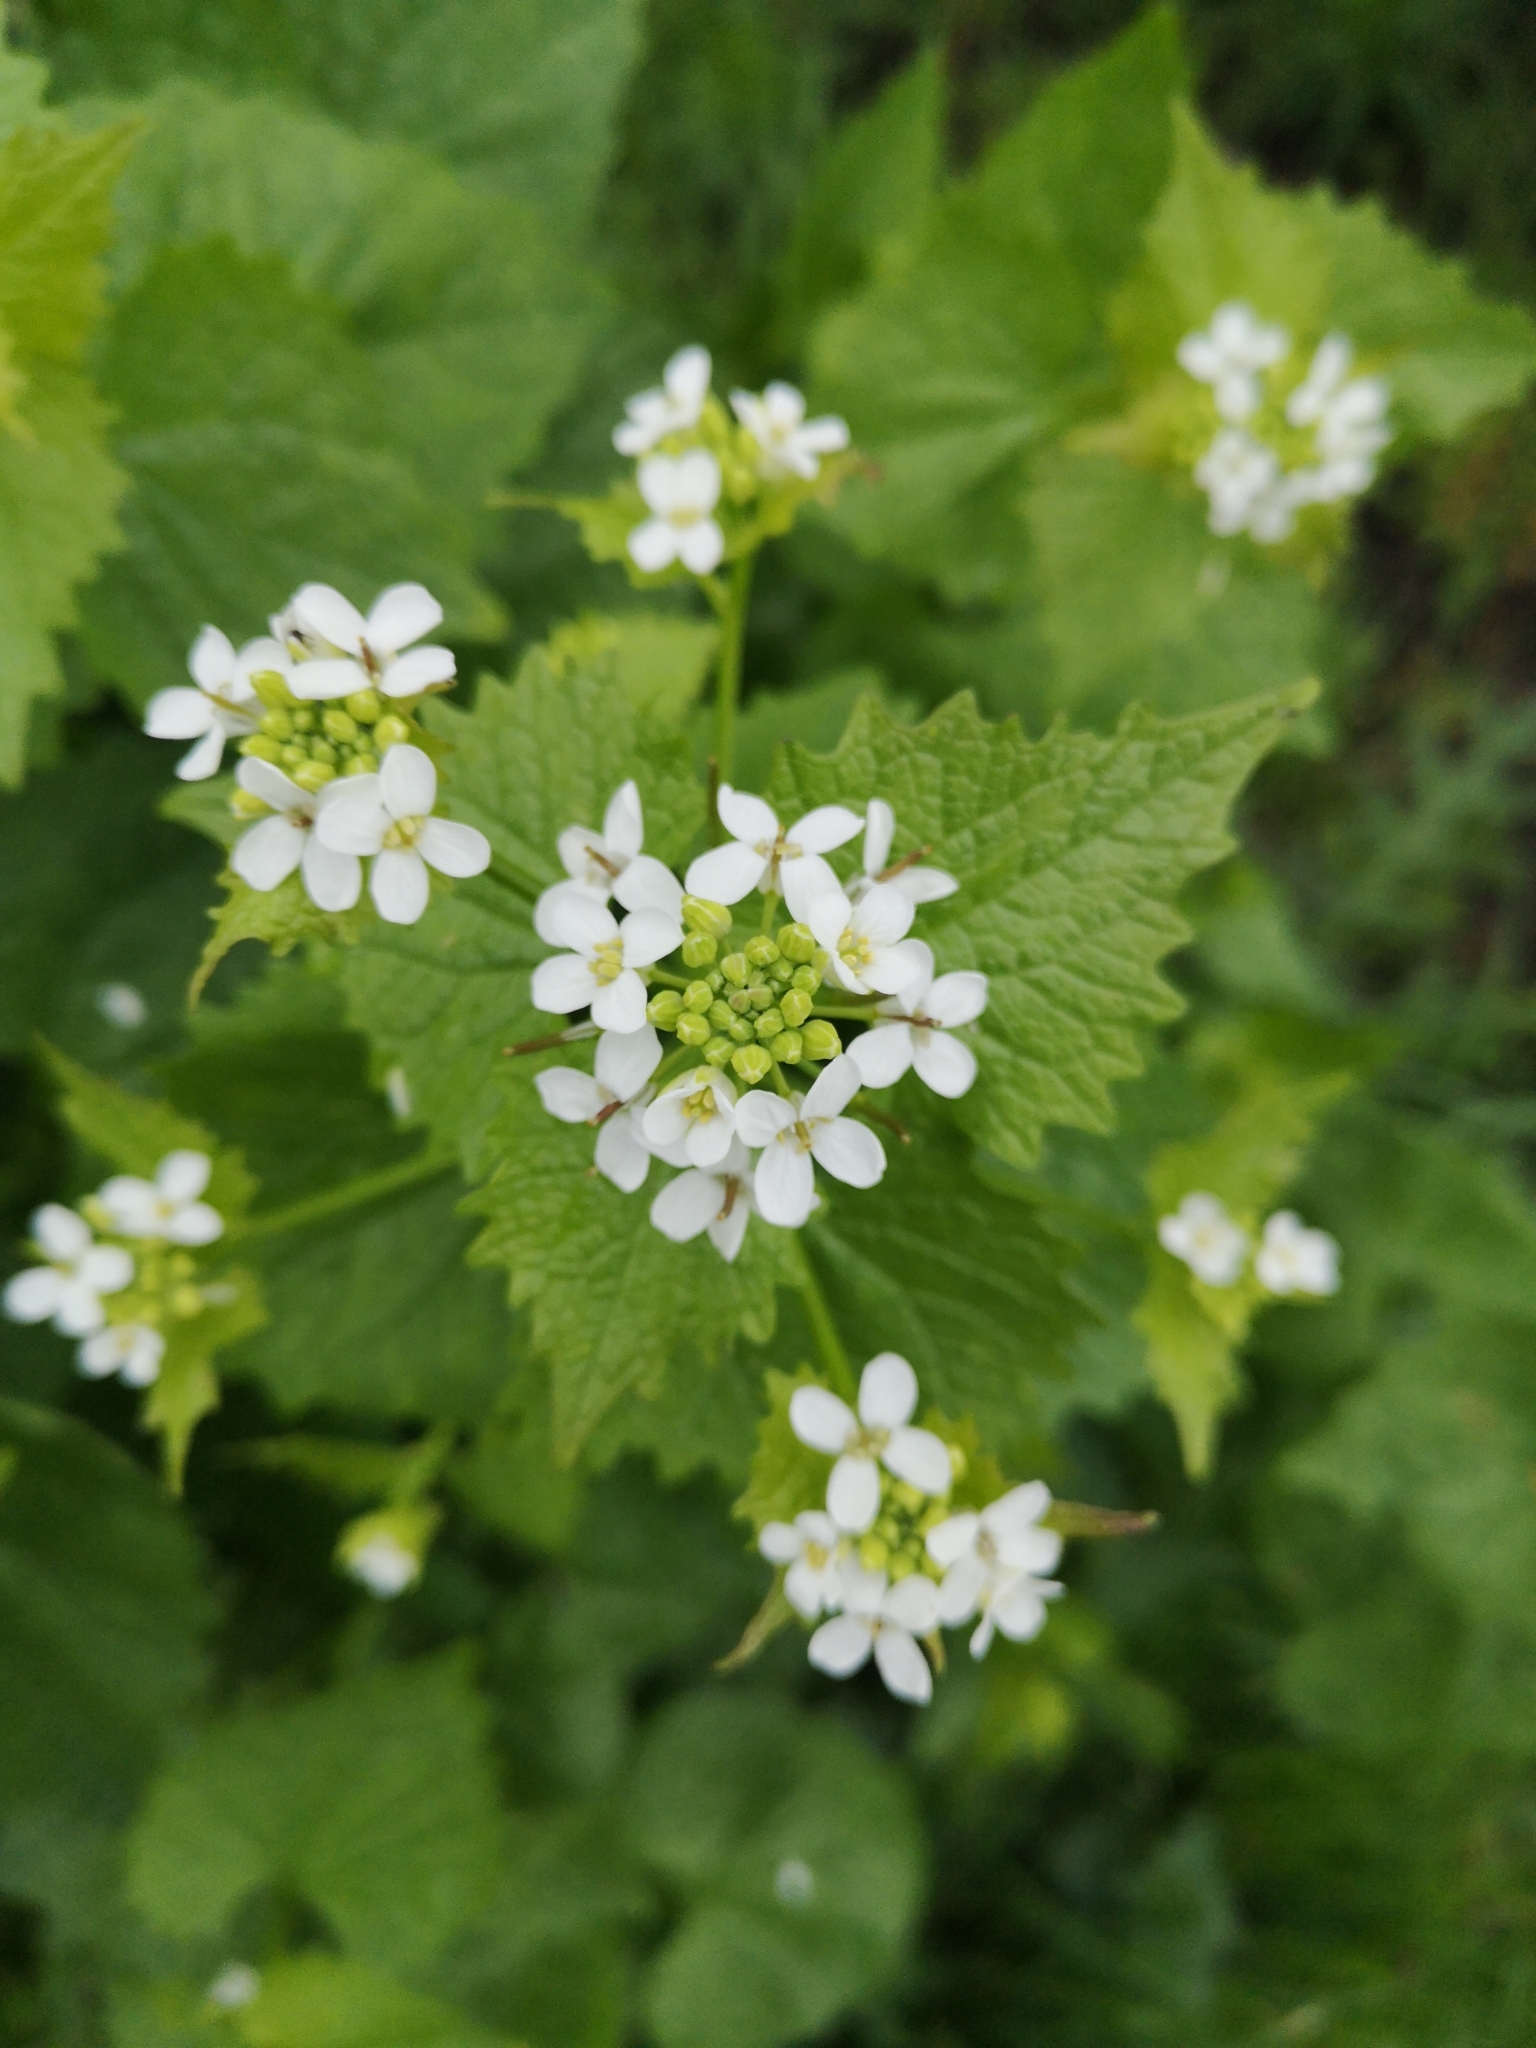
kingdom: Plantae
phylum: Tracheophyta
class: Magnoliopsida
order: Brassicales
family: Brassicaceae
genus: Alliaria
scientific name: Alliaria petiolata
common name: Garlic mustard
